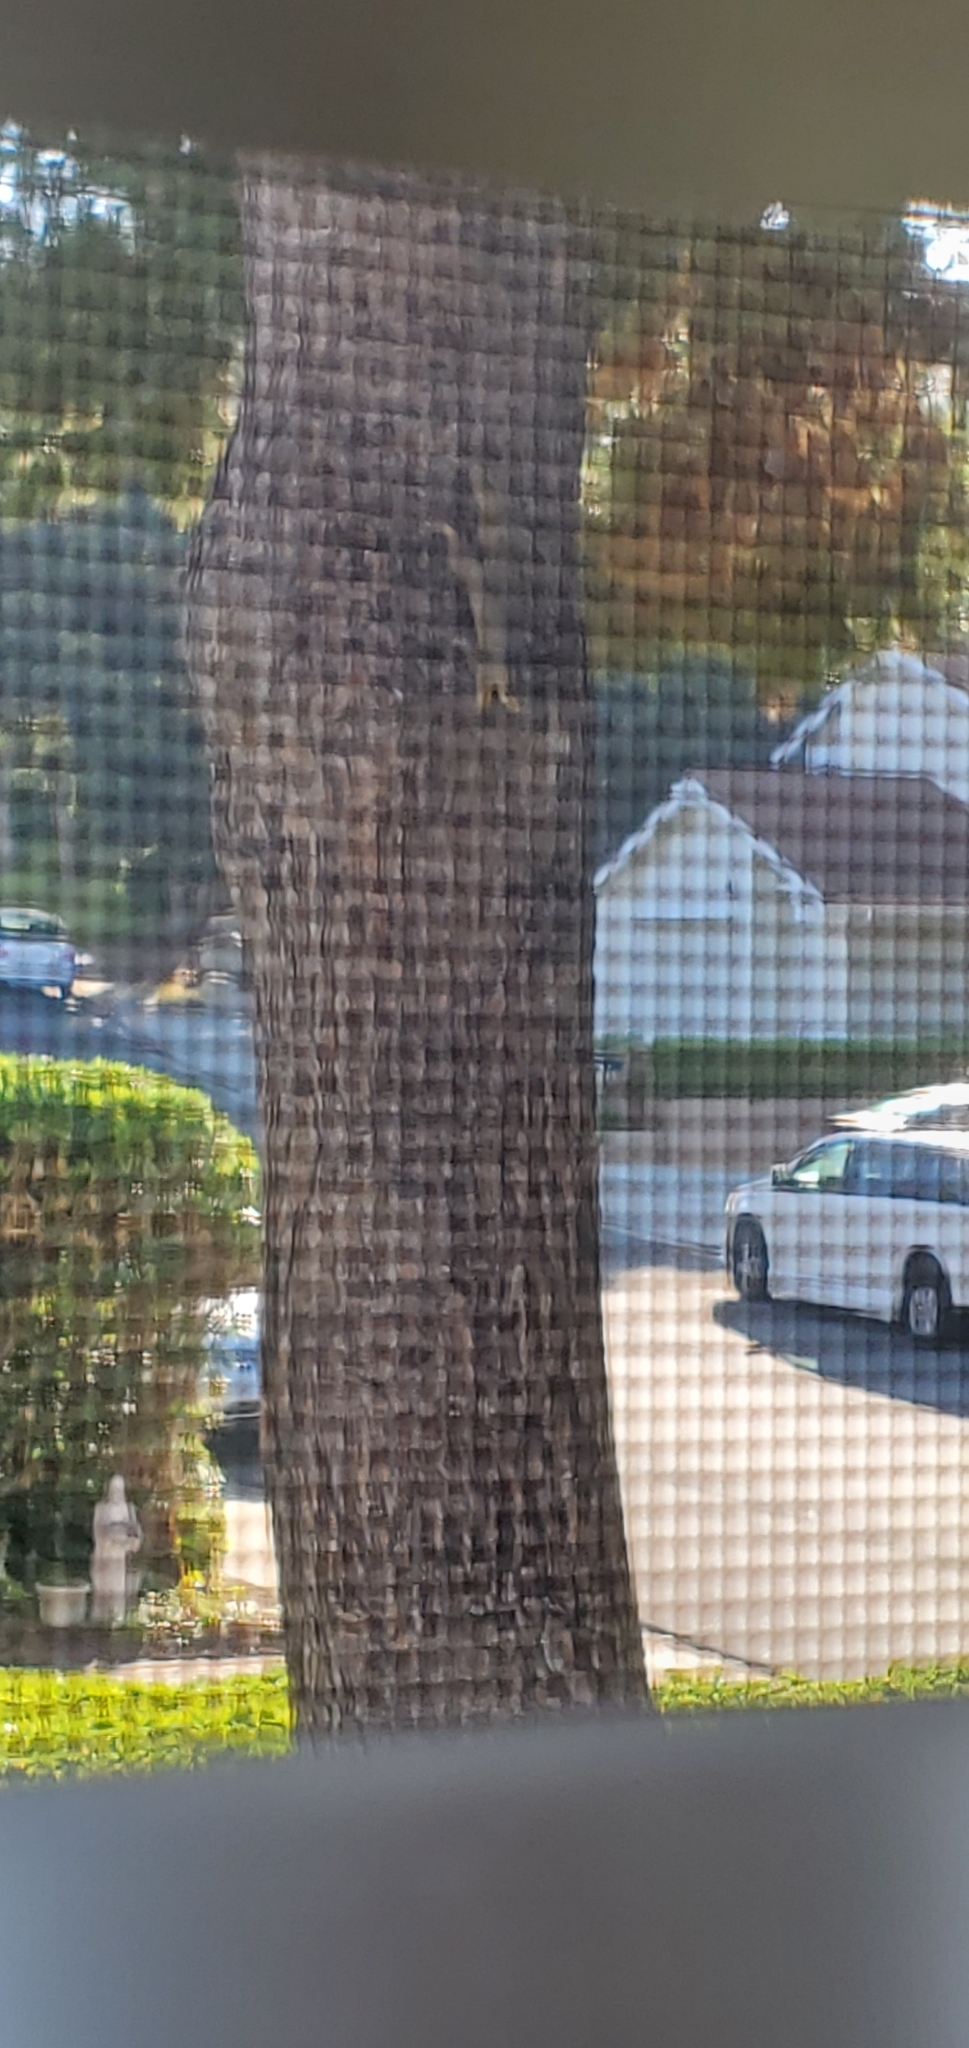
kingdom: Animalia
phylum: Chordata
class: Mammalia
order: Rodentia
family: Sciuridae
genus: Sciurus
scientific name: Sciurus niger
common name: Fox squirrel
